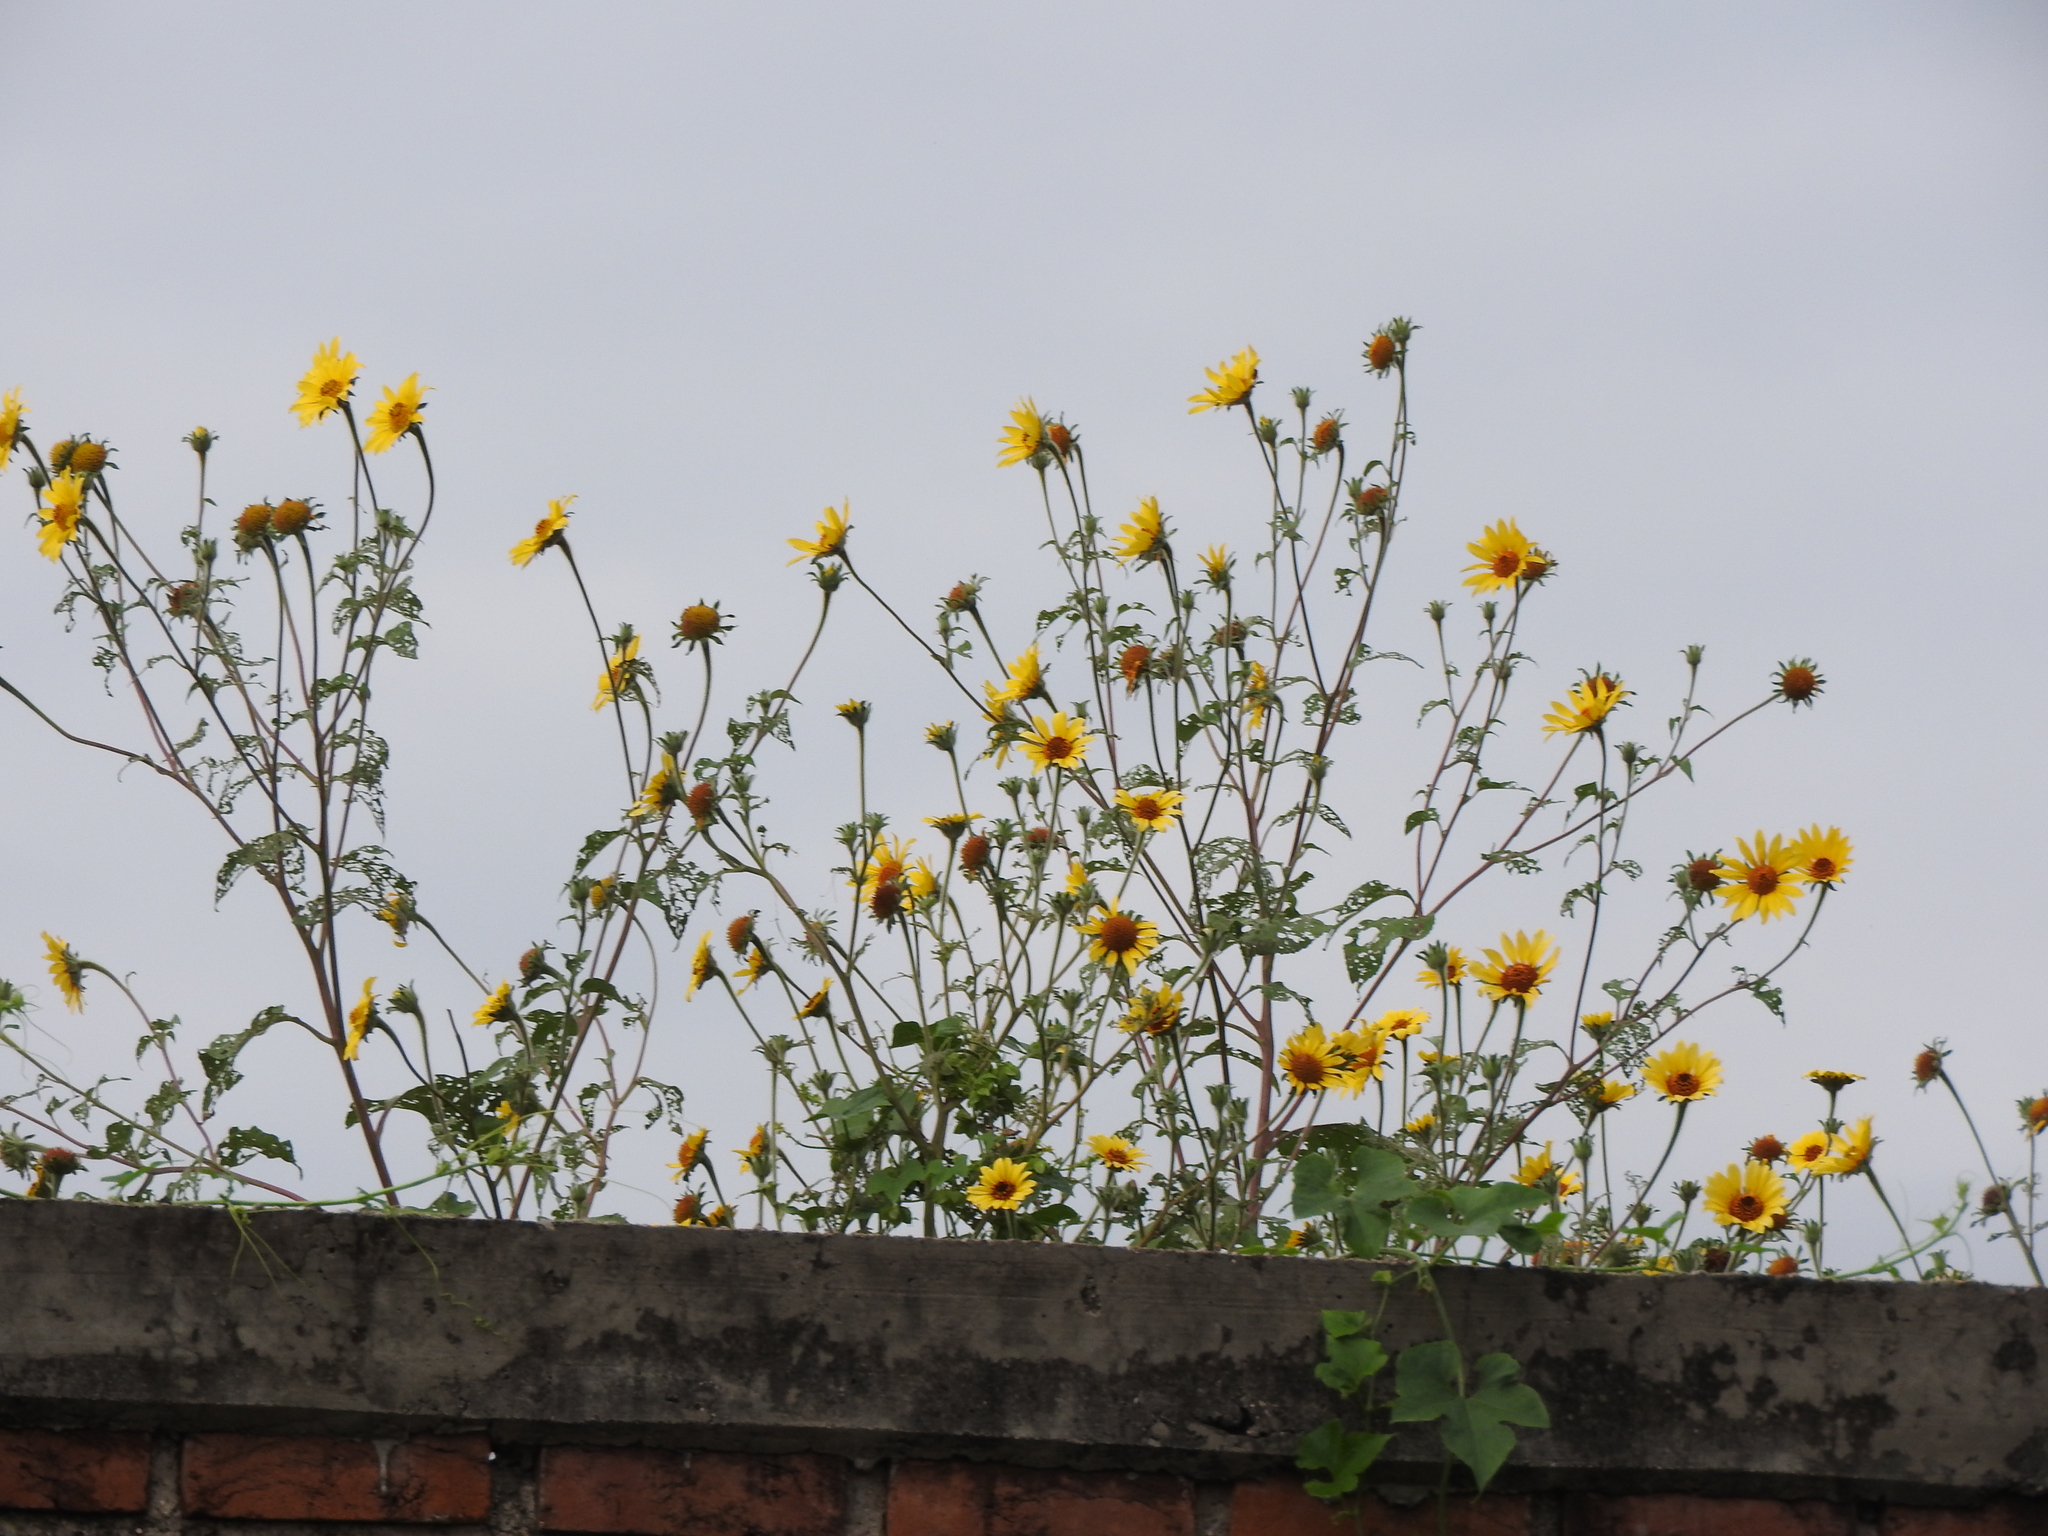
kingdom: Plantae
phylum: Tracheophyta
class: Magnoliopsida
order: Asterales
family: Asteraceae
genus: Tithonia
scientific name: Tithonia tubaeformis
